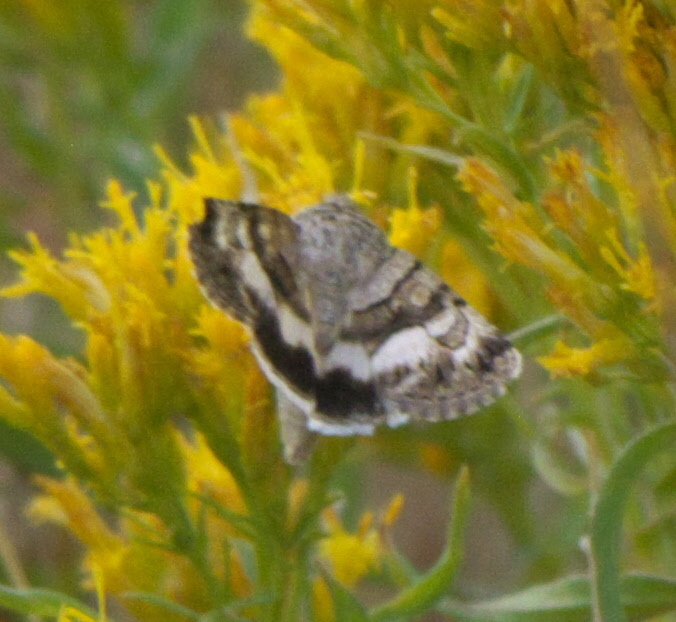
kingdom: Animalia
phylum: Arthropoda
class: Insecta
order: Lepidoptera
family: Noctuidae
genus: Sympistis
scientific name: Sympistis albifasciata
